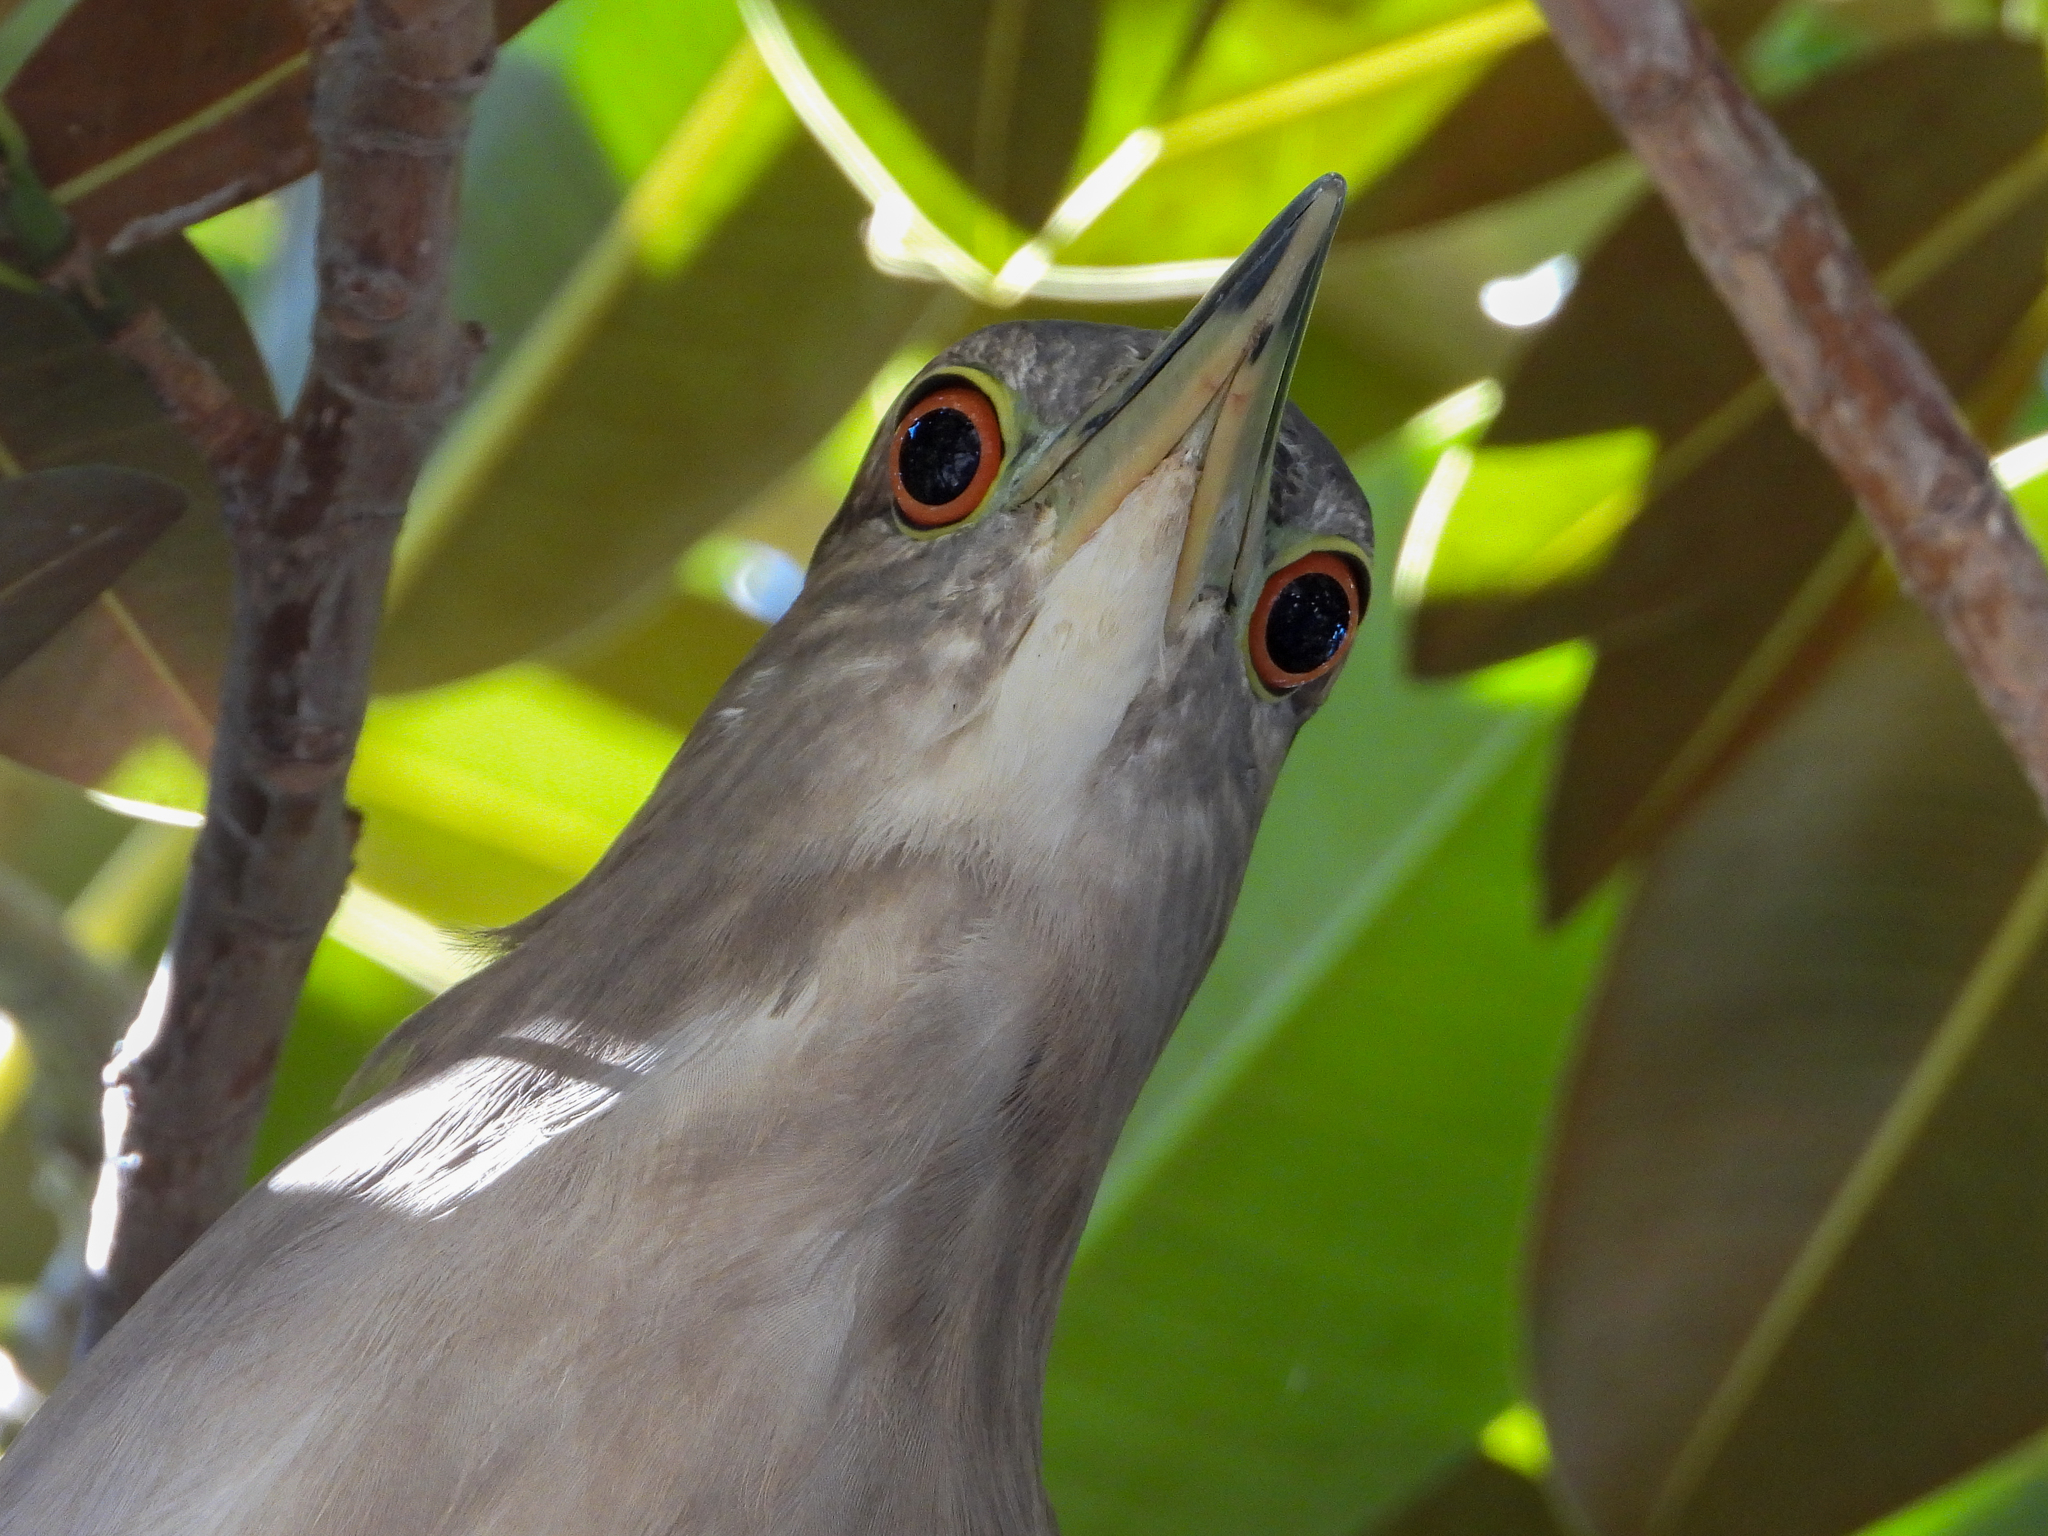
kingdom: Animalia
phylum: Chordata
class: Aves
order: Pelecaniformes
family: Ardeidae
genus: Nycticorax
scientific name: Nycticorax nycticorax
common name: Black-crowned night heron
